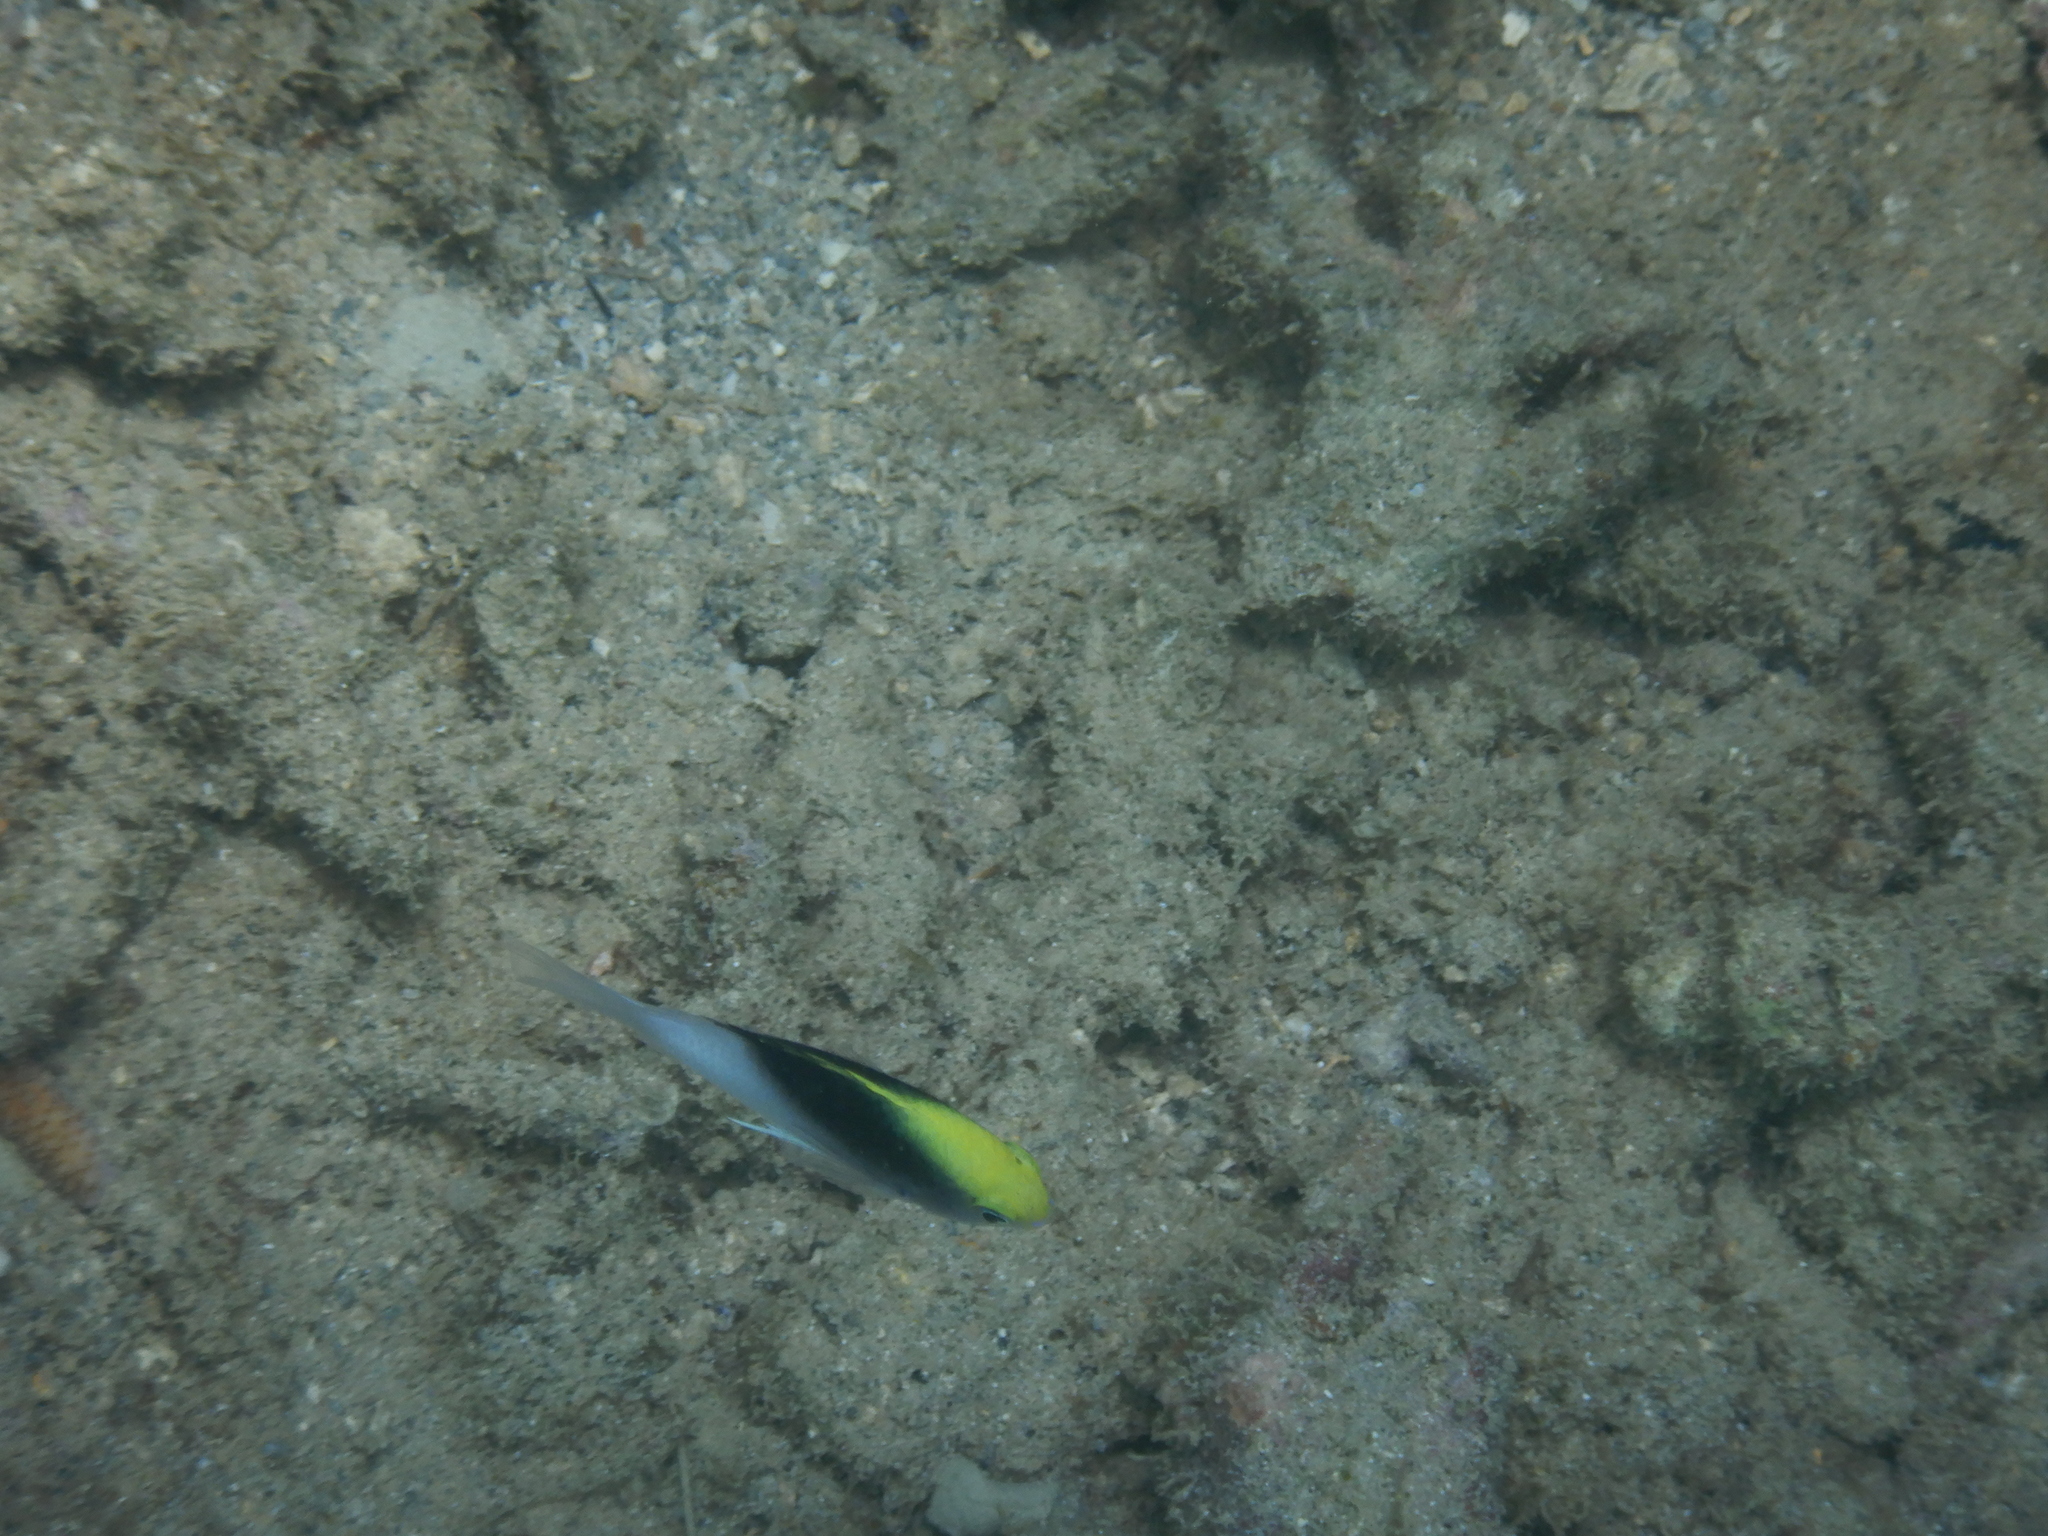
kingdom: Animalia
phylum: Chordata
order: Perciformes
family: Pomacentridae
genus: Chrysiptera
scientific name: Chrysiptera rollandi
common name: Rolland's demoiselle
